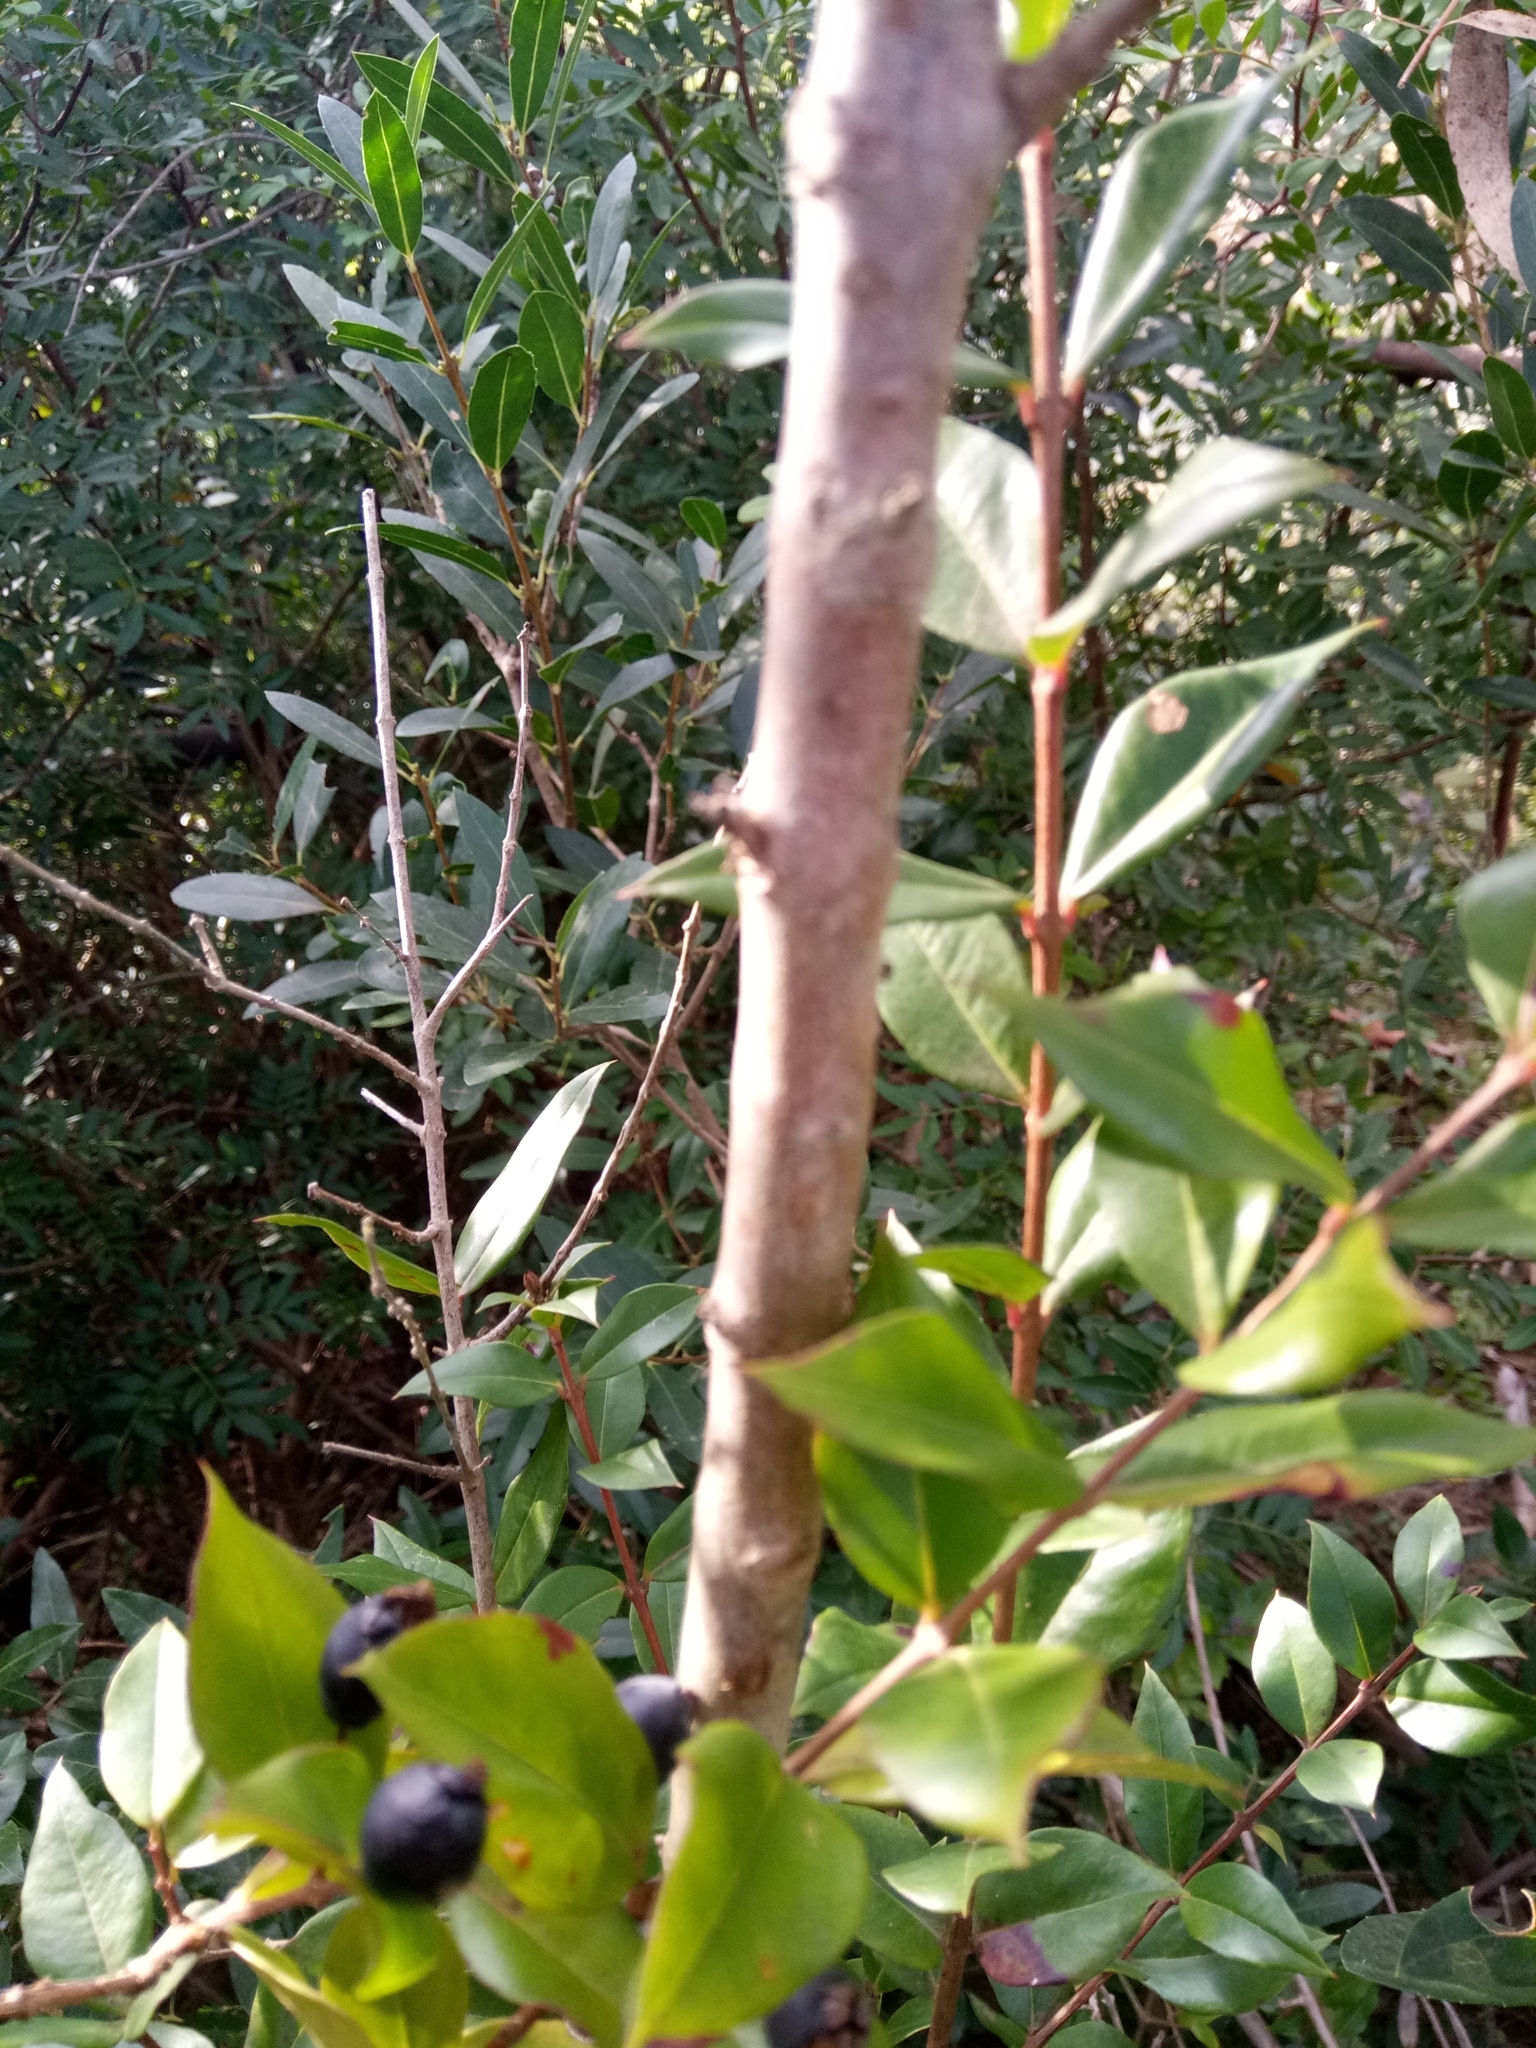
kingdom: Plantae
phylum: Tracheophyta
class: Magnoliopsida
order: Myrtales
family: Myrtaceae
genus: Myrtus
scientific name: Myrtus communis
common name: Myrtle
